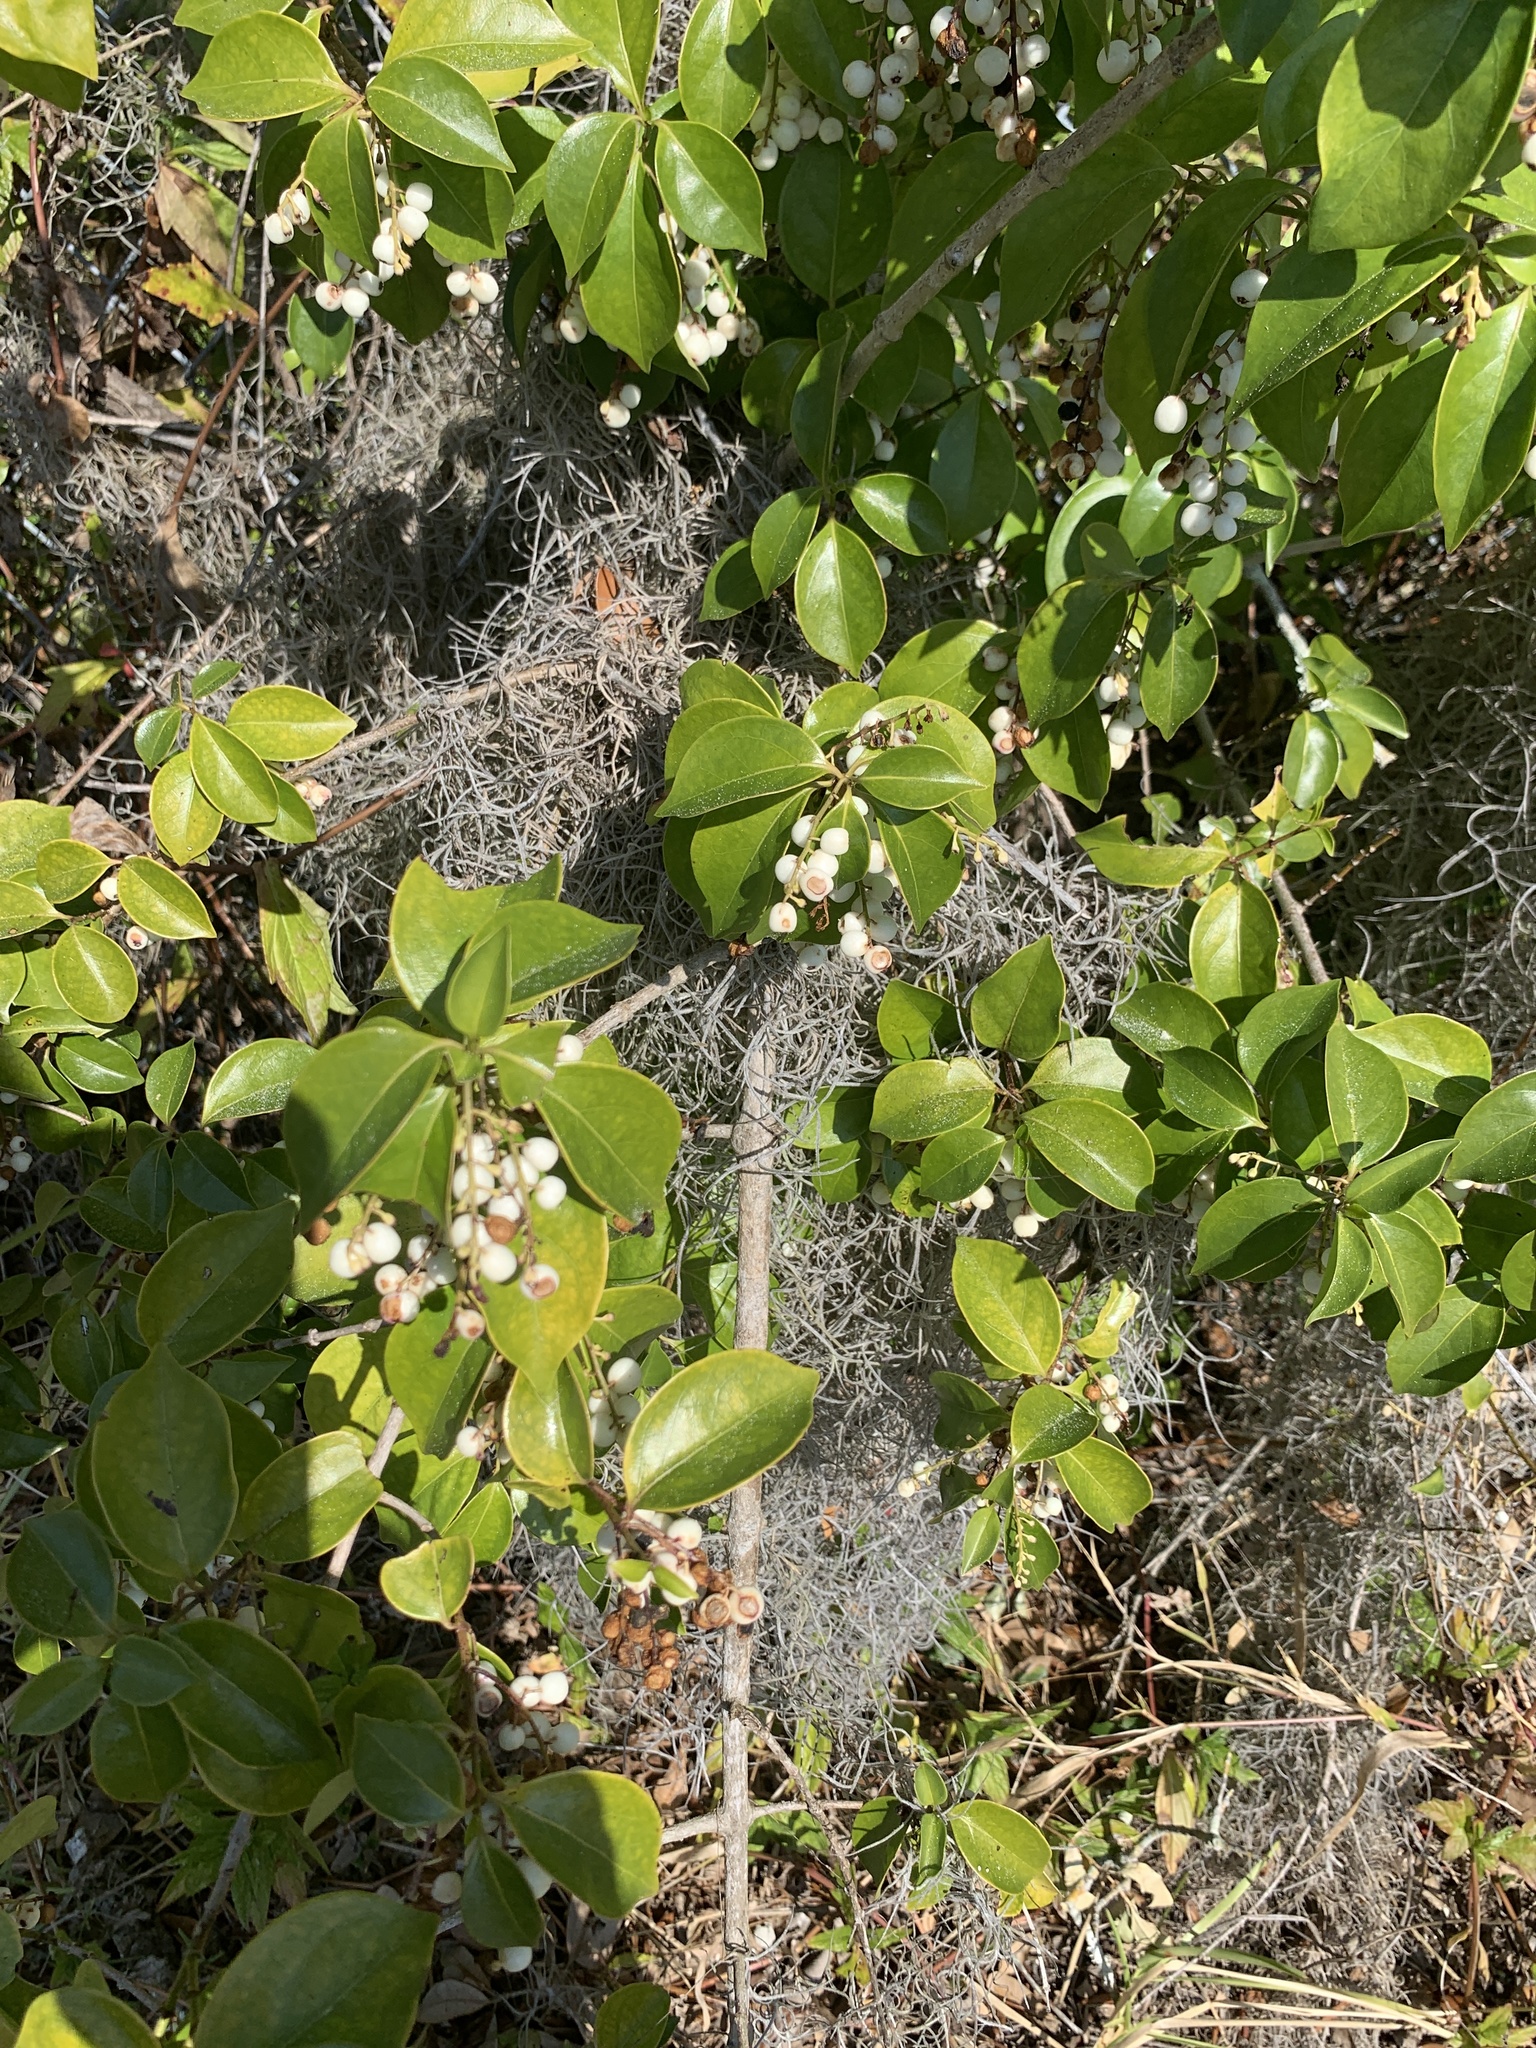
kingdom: Plantae
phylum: Tracheophyta
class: Magnoliopsida
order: Gentianales
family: Rubiaceae
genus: Chiococca
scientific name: Chiococca alba
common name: Snowberry
